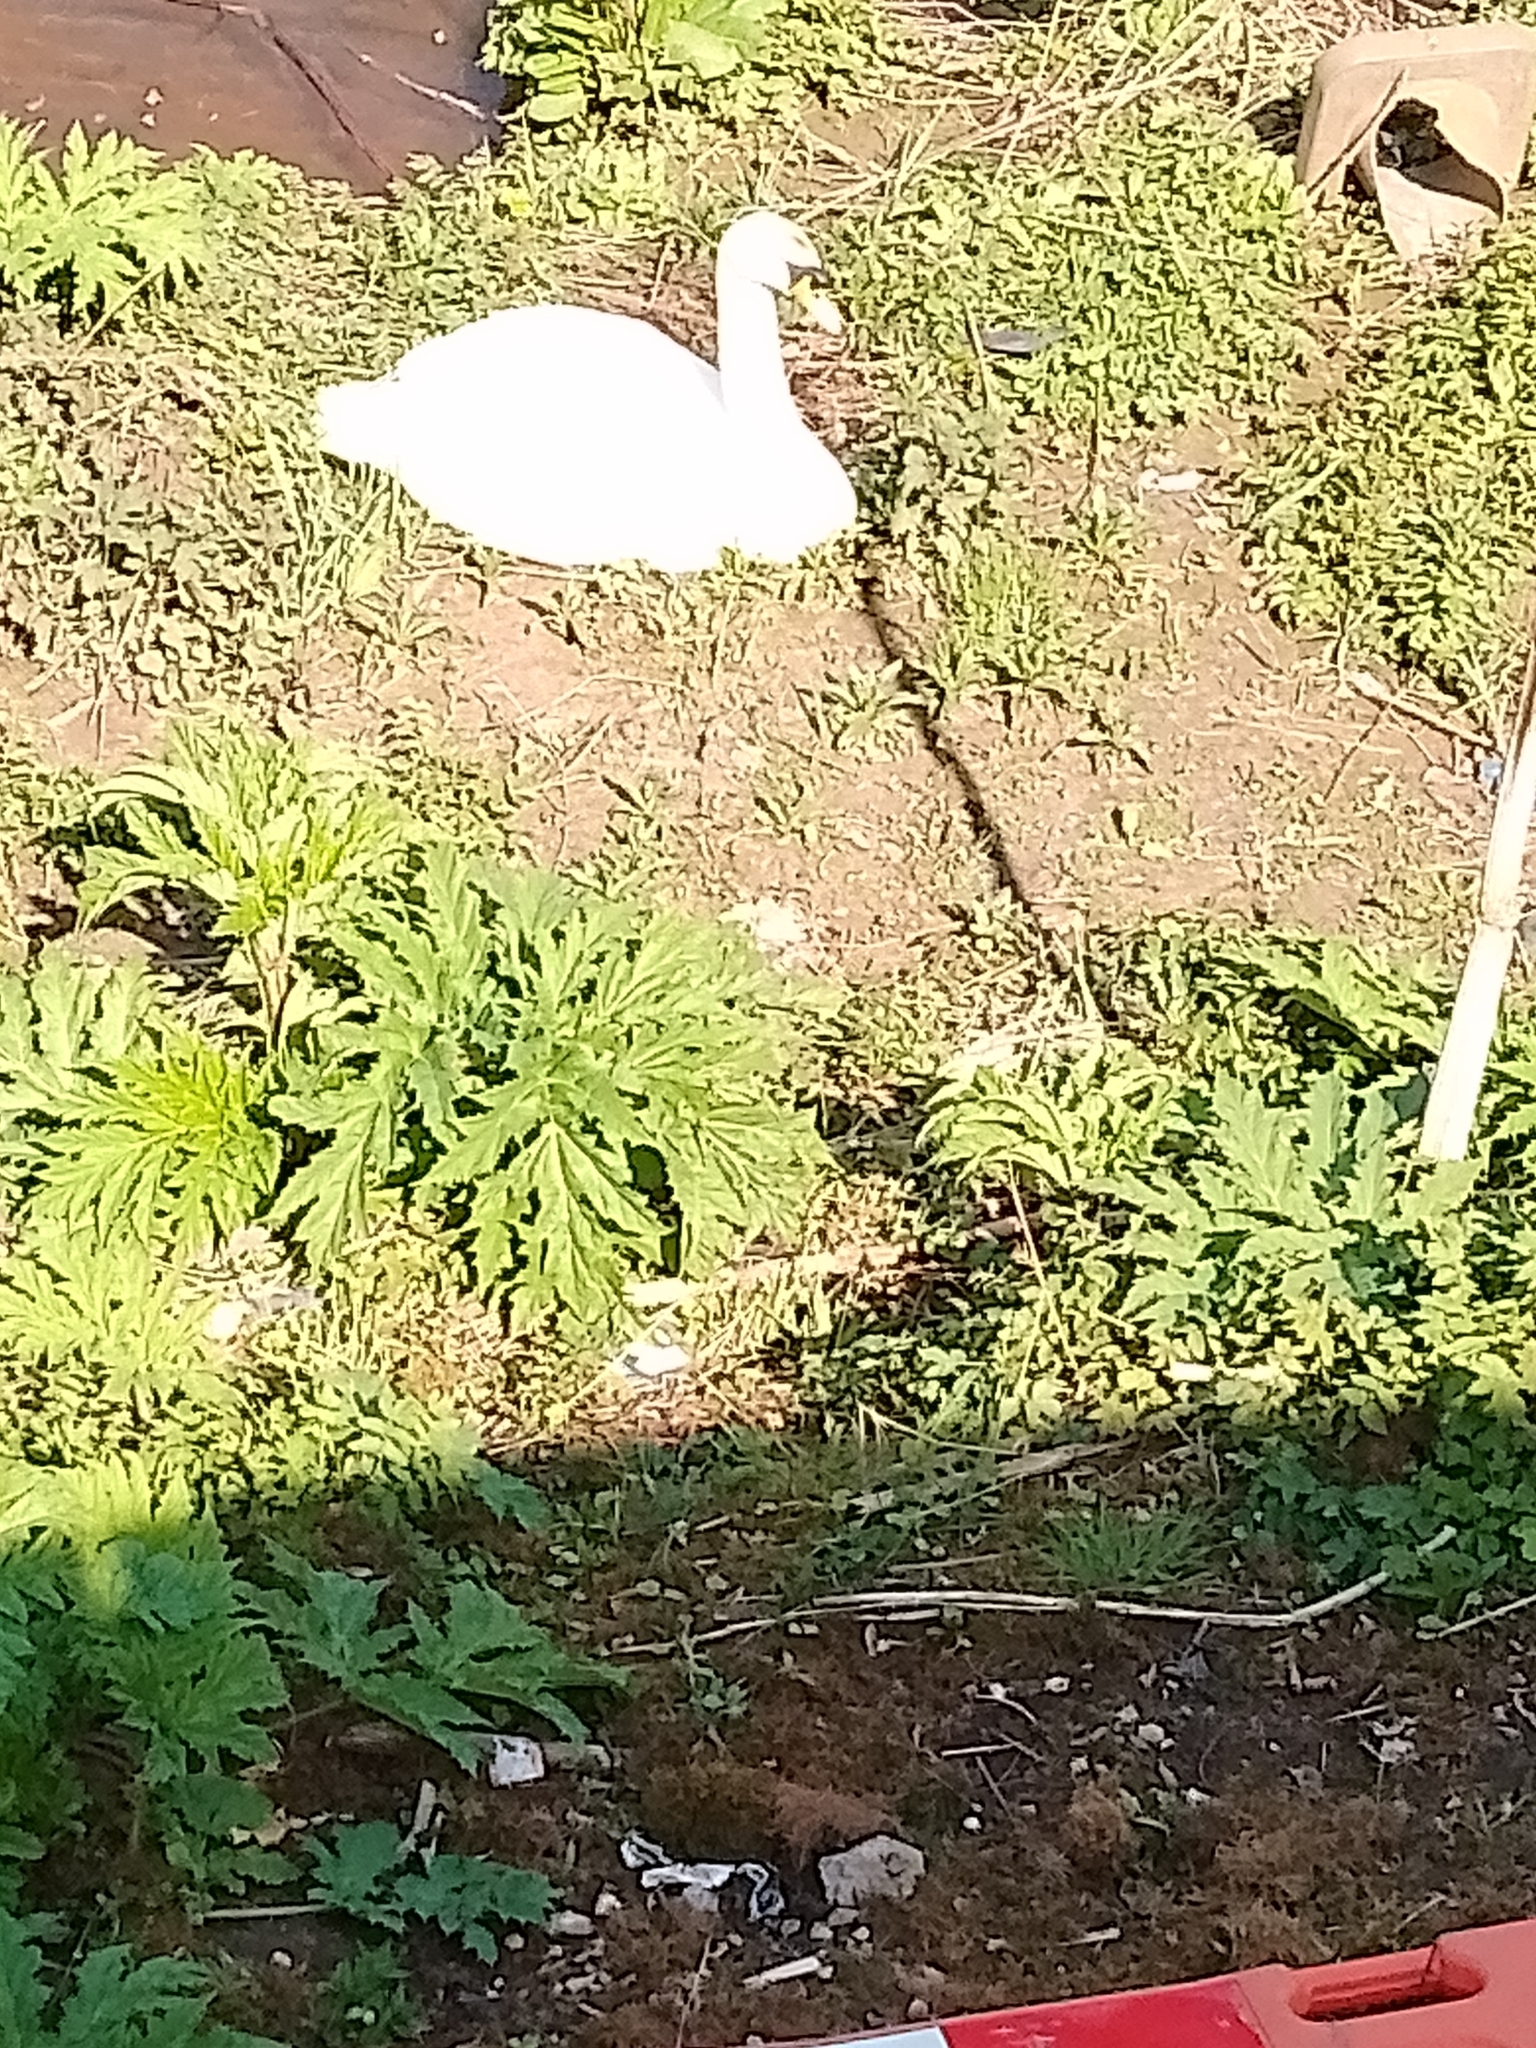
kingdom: Animalia
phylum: Chordata
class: Aves
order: Anseriformes
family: Anatidae
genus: Cygnus
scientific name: Cygnus olor
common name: Mute swan
